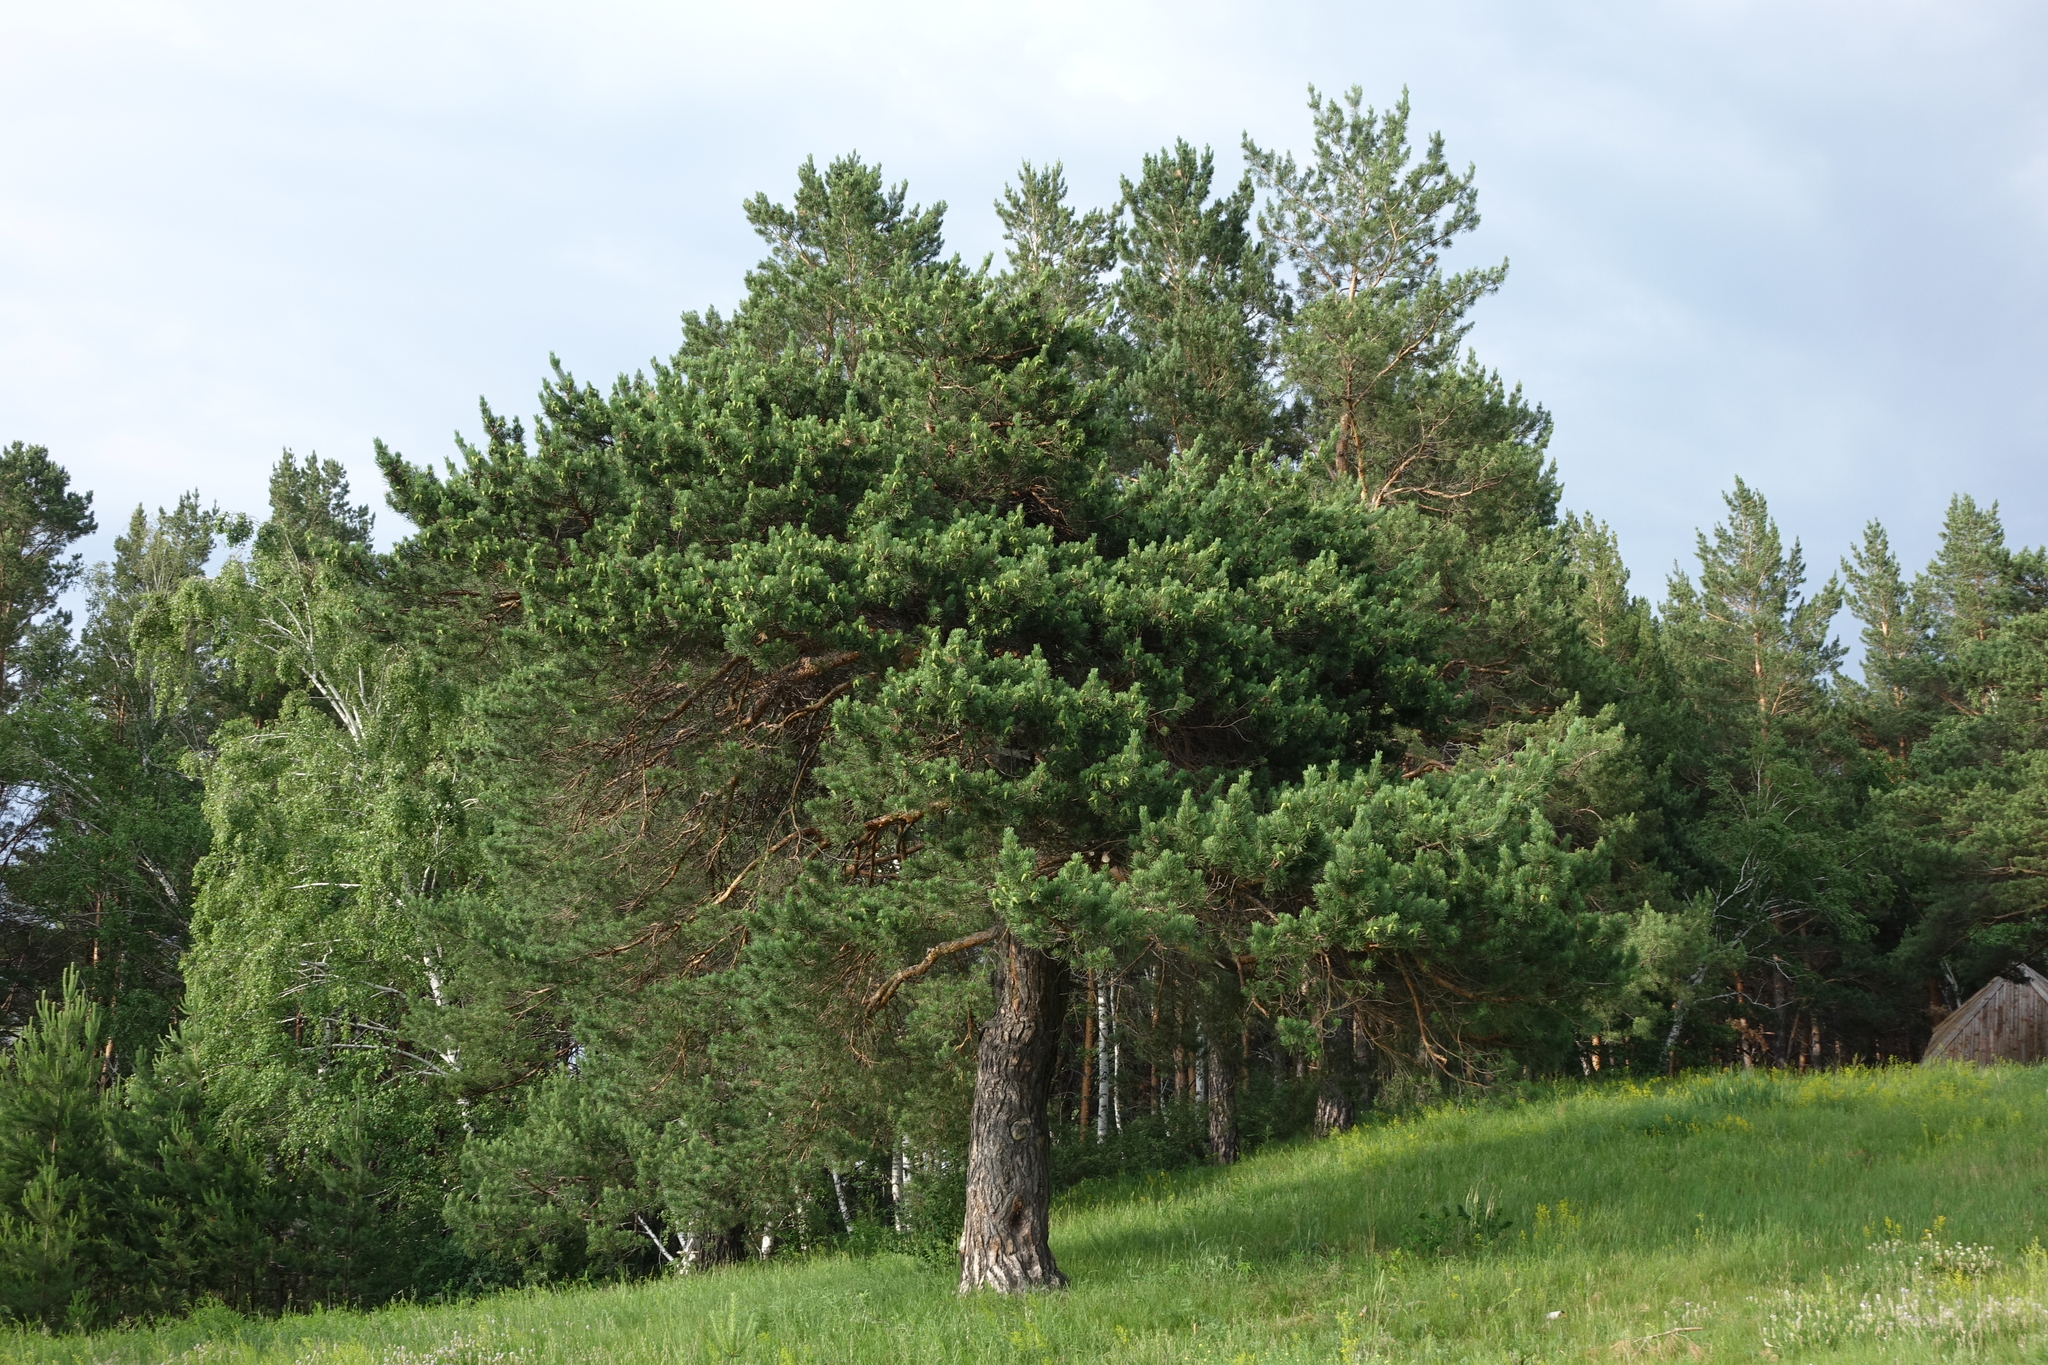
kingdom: Plantae
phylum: Tracheophyta
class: Pinopsida
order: Pinales
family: Pinaceae
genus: Pinus
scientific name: Pinus sylvestris
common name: Scots pine
